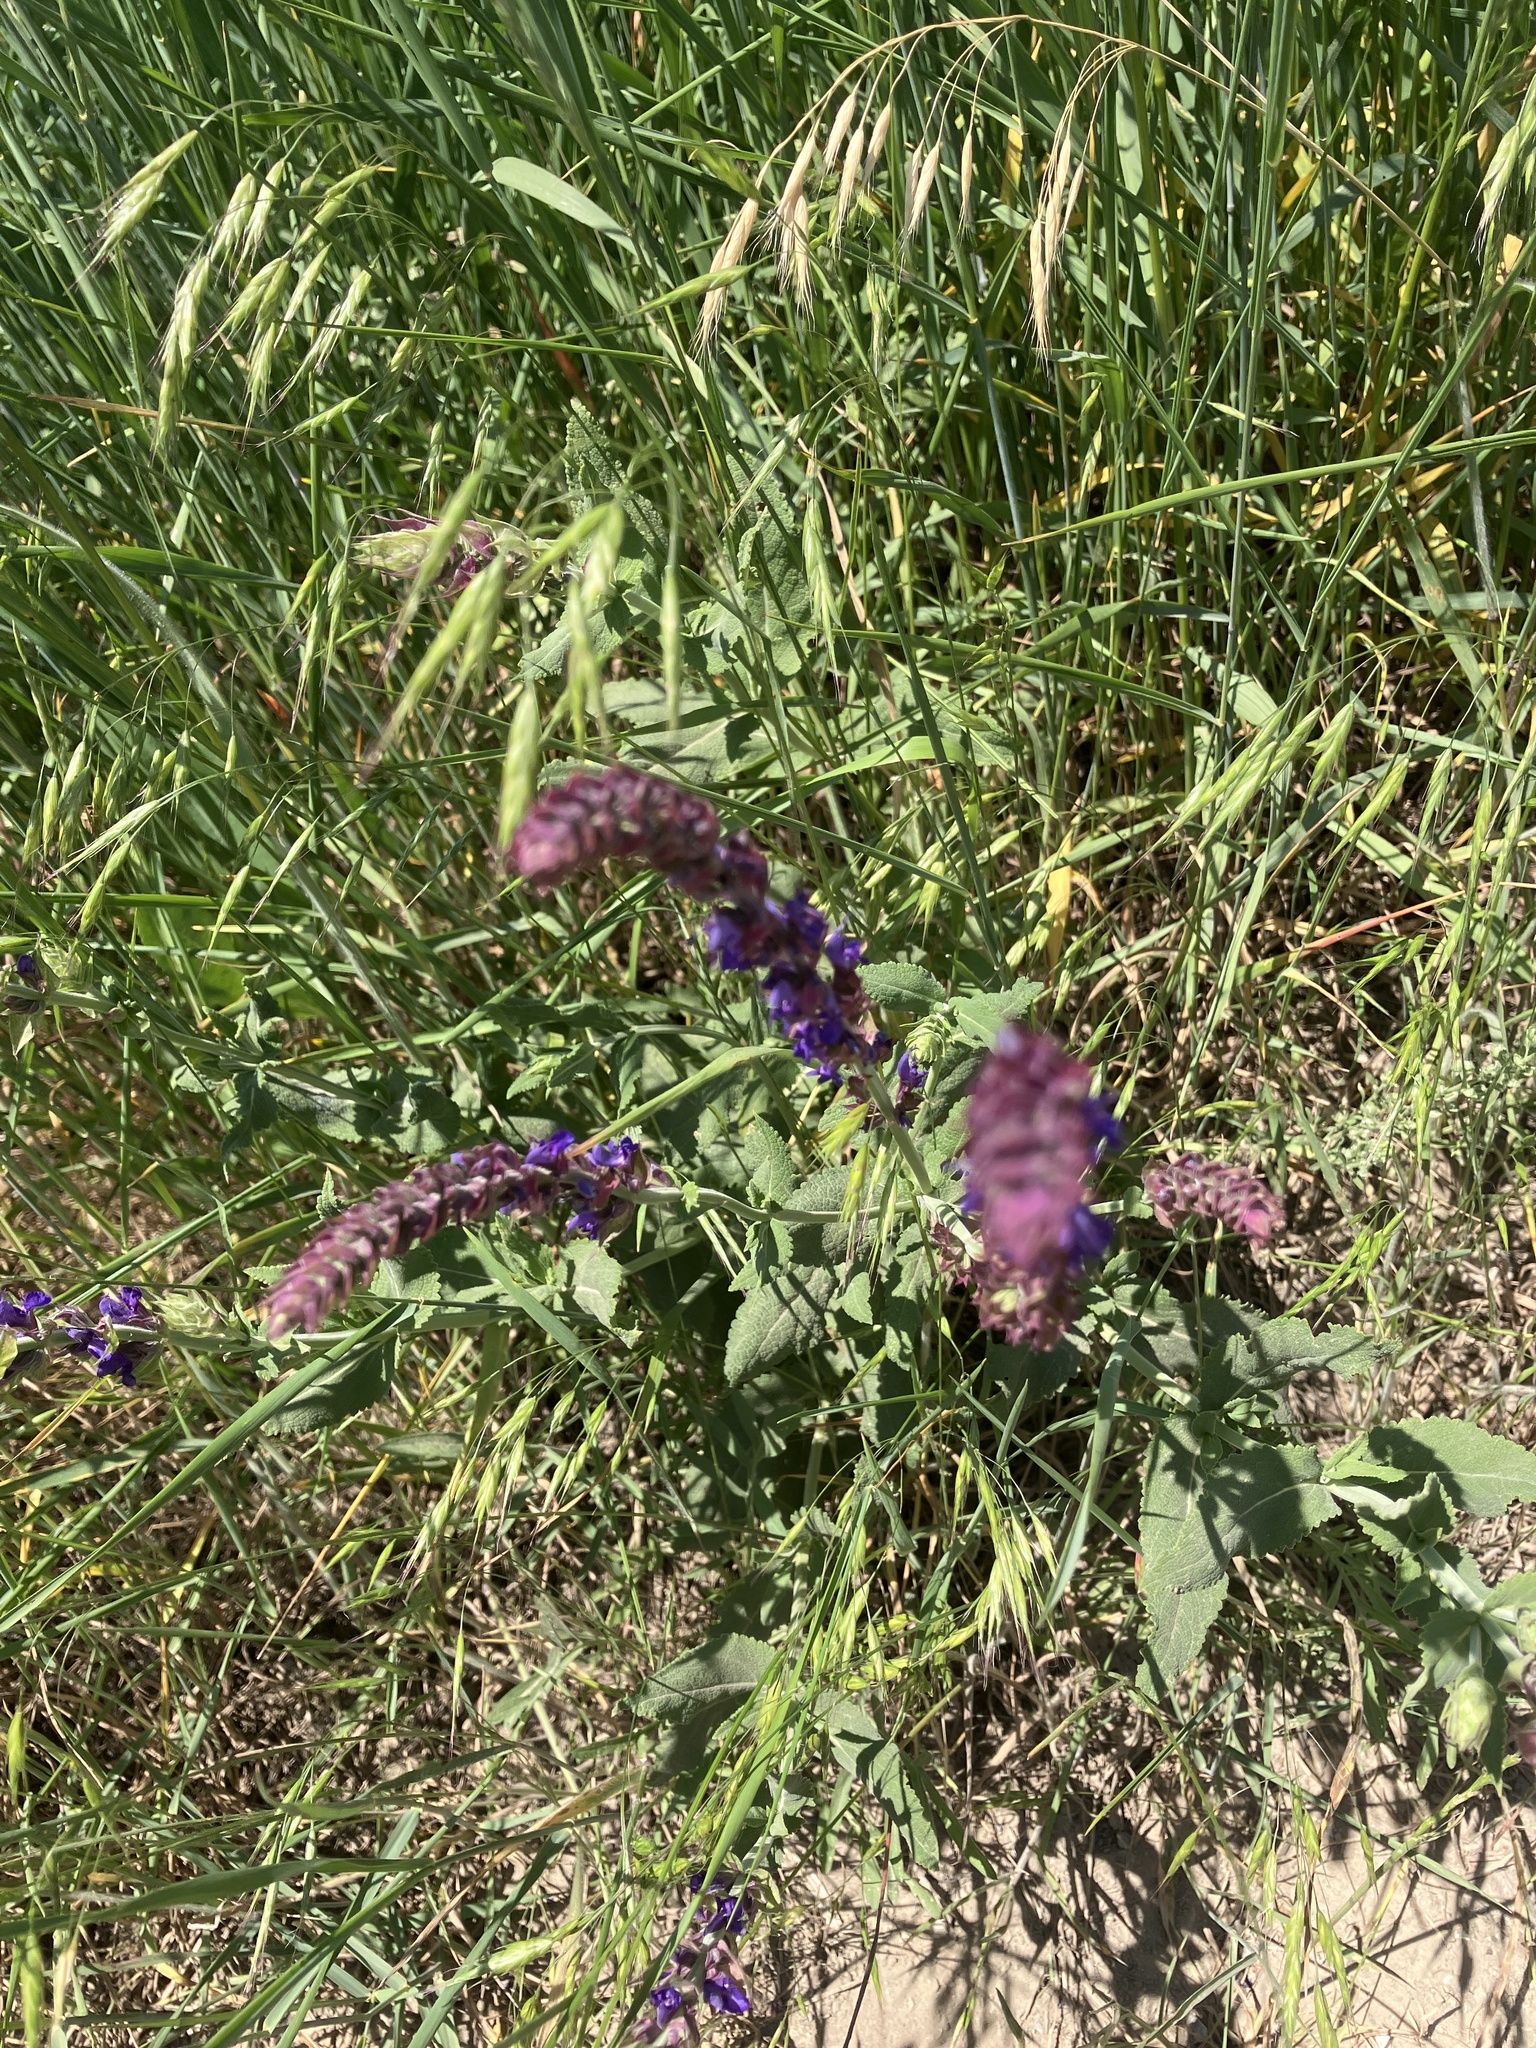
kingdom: Plantae
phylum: Tracheophyta
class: Magnoliopsida
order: Lamiales
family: Lamiaceae
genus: Salvia
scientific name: Salvia nemorosa
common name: Balkan clary
